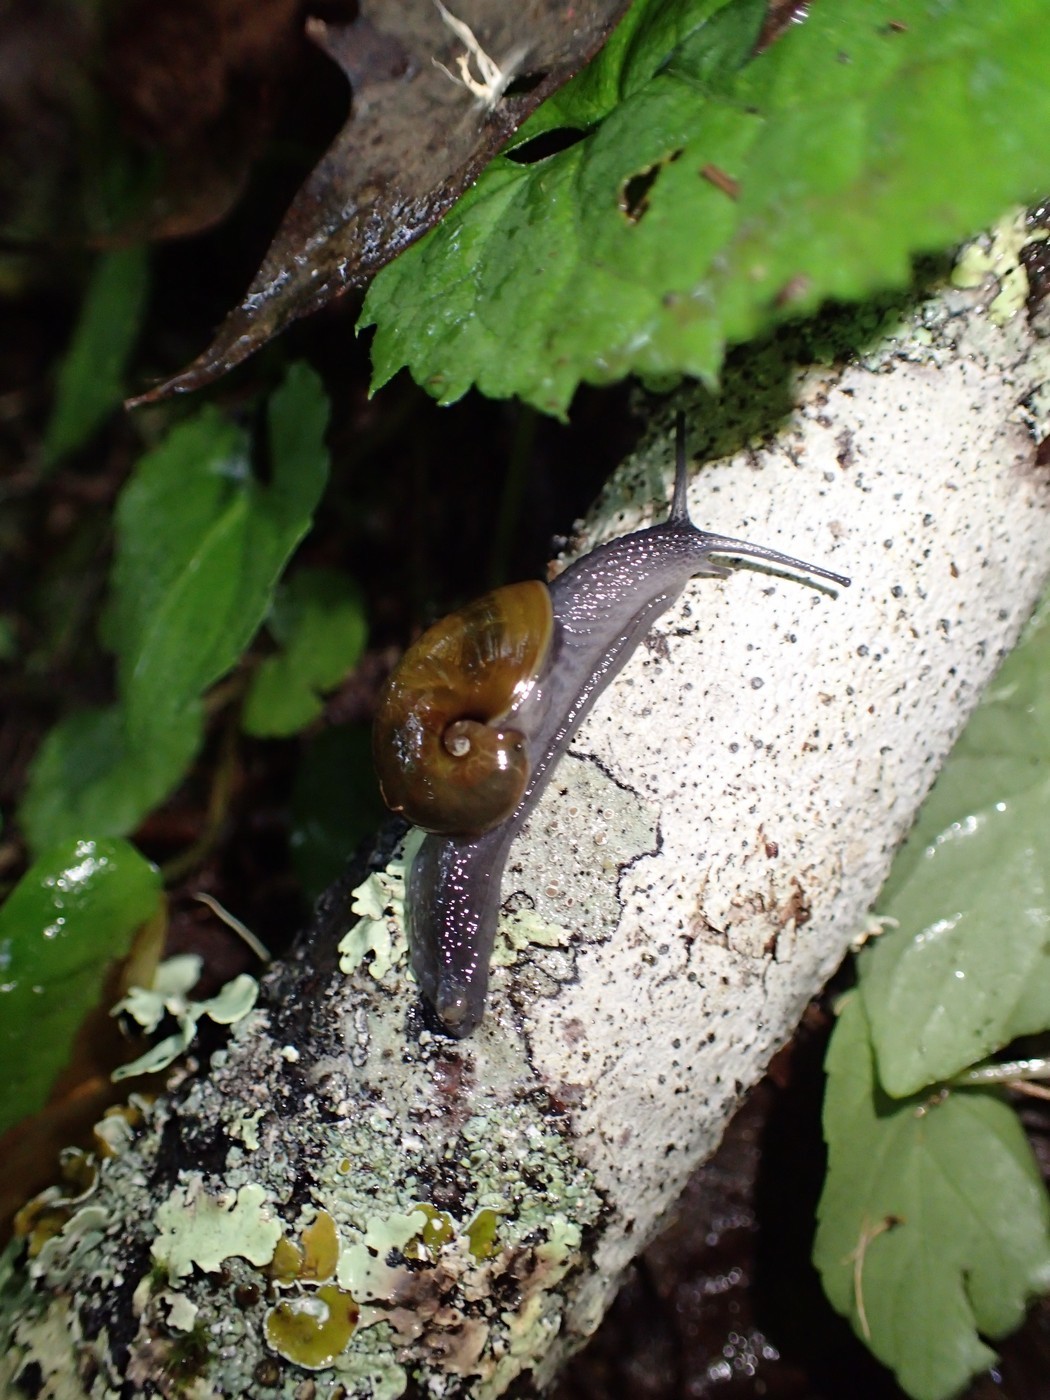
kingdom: Animalia
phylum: Mollusca
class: Gastropoda
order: Stylommatophora
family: Gastrodontidae
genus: Vitrinizonites
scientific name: Vitrinizonites latissimus
